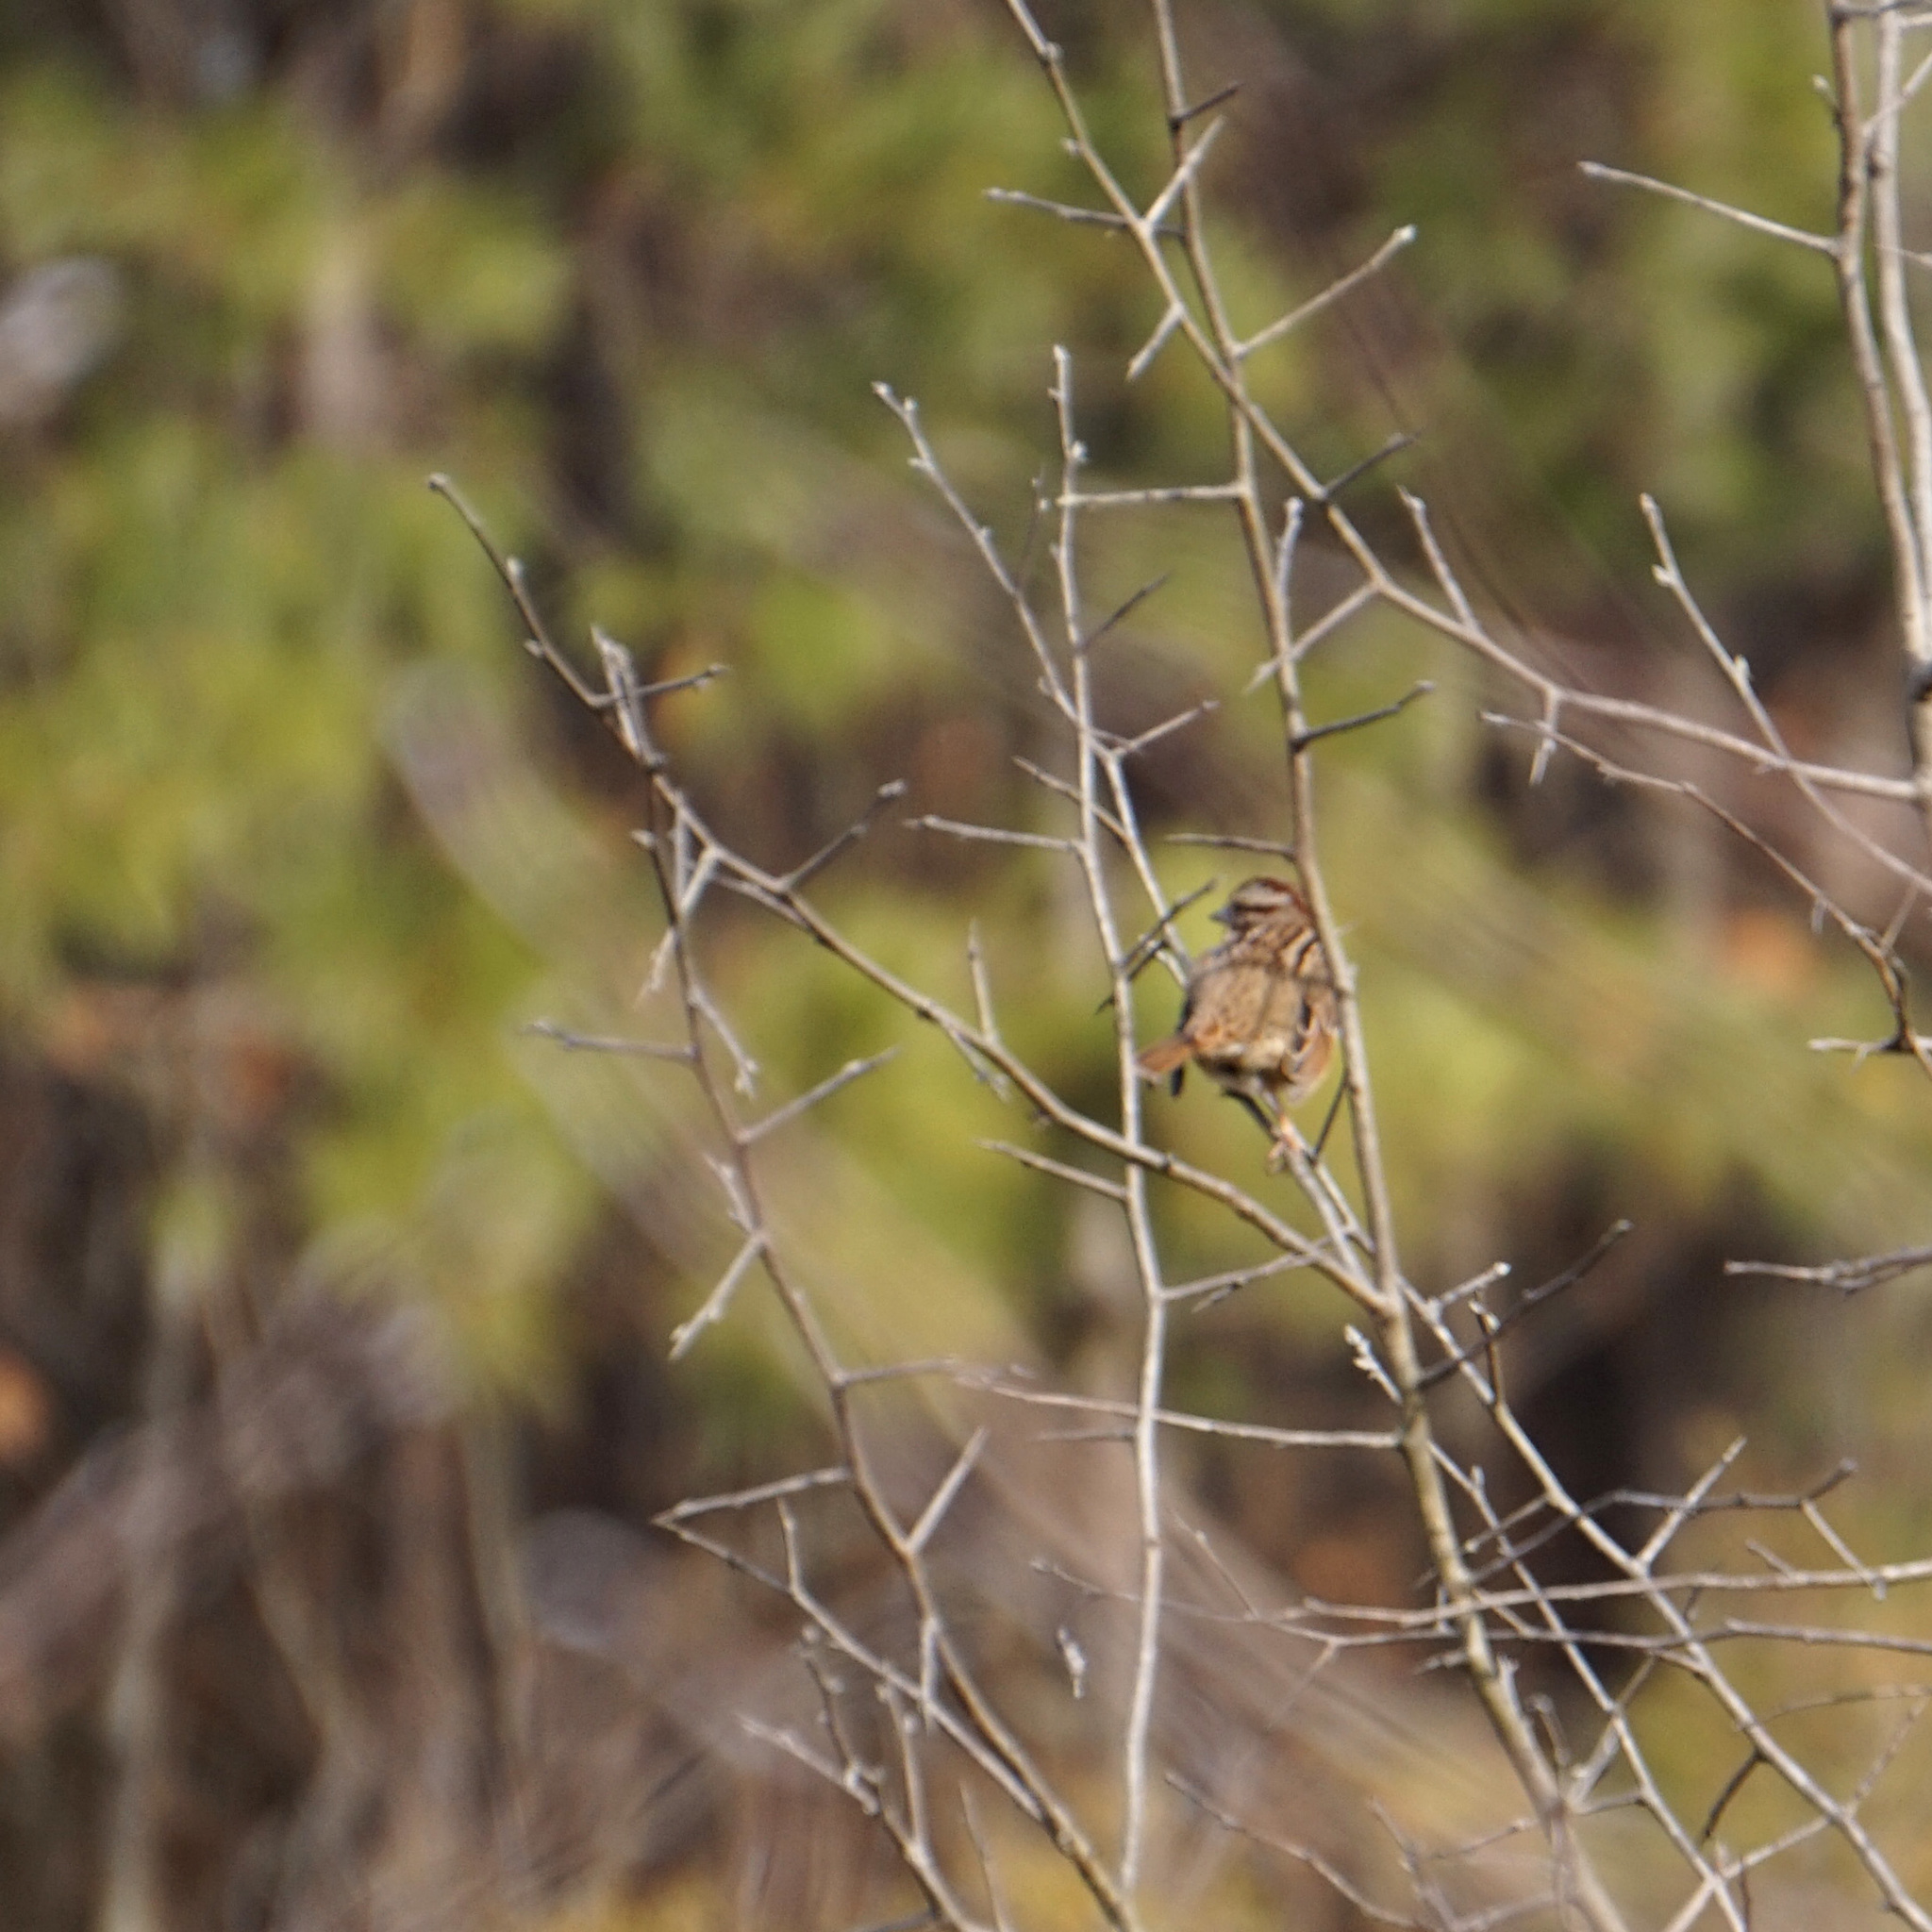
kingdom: Animalia
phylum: Chordata
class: Aves
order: Passeriformes
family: Passerellidae
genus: Zonotrichia
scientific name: Zonotrichia albicollis
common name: White-throated sparrow
